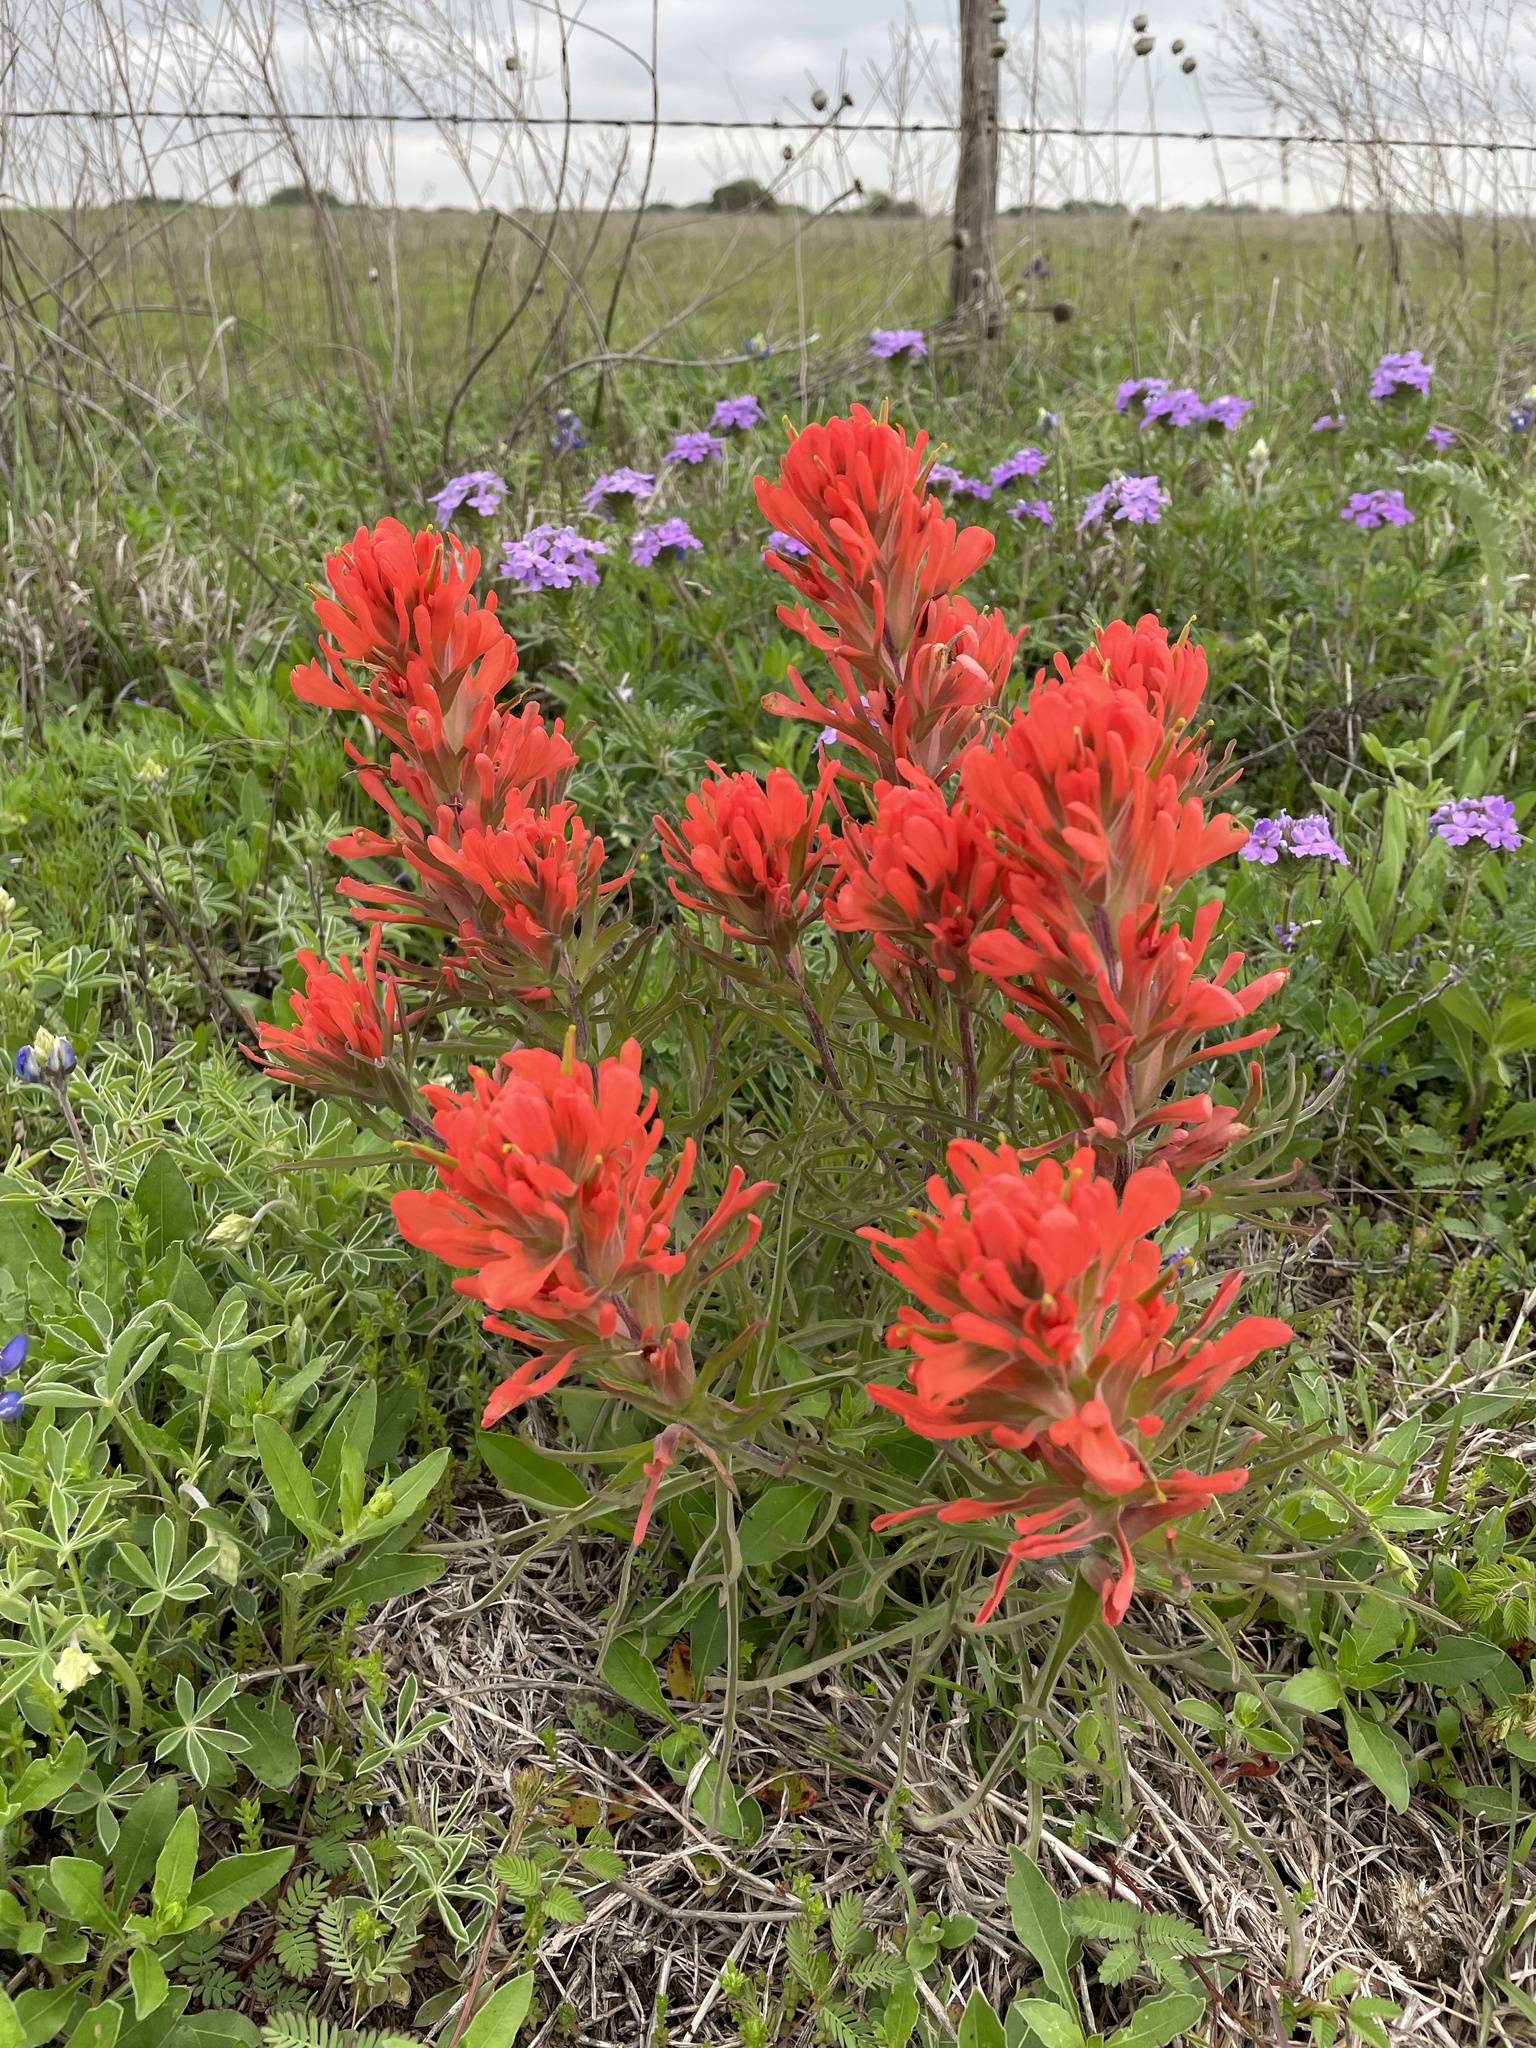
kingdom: Plantae
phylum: Tracheophyta
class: Magnoliopsida
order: Lamiales
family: Orobanchaceae
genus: Castilleja
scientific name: Castilleja lindheimeri
